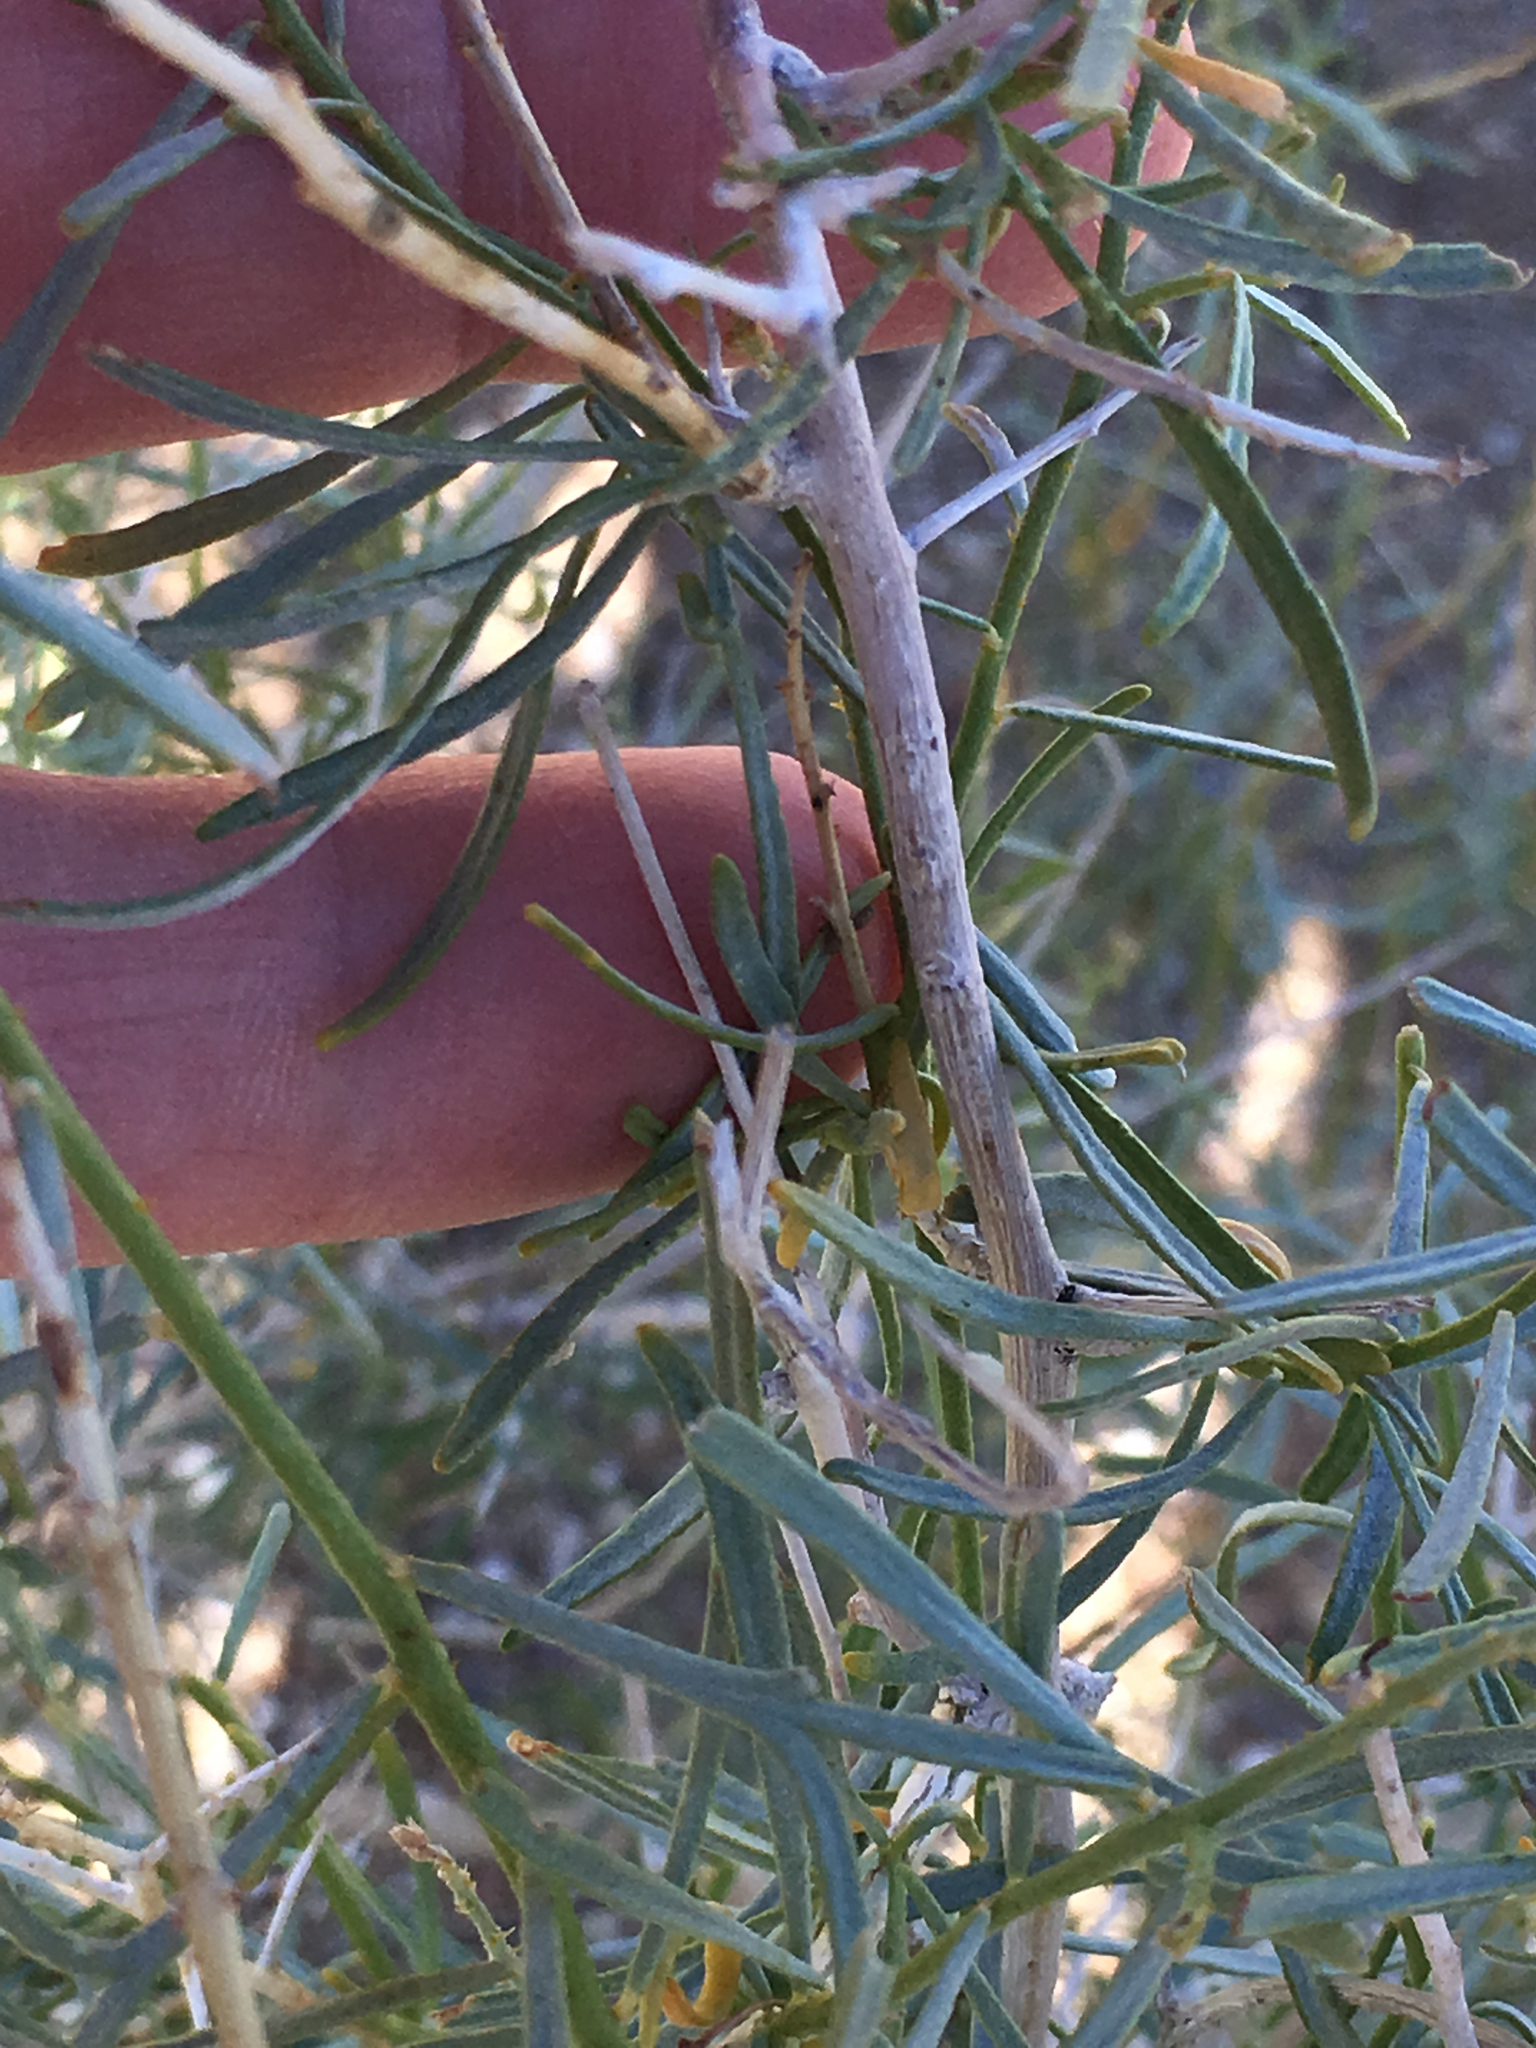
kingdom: Plantae
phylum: Tracheophyta
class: Magnoliopsida
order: Fabales
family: Fabaceae
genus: Psorothamnus
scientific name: Psorothamnus schottii
